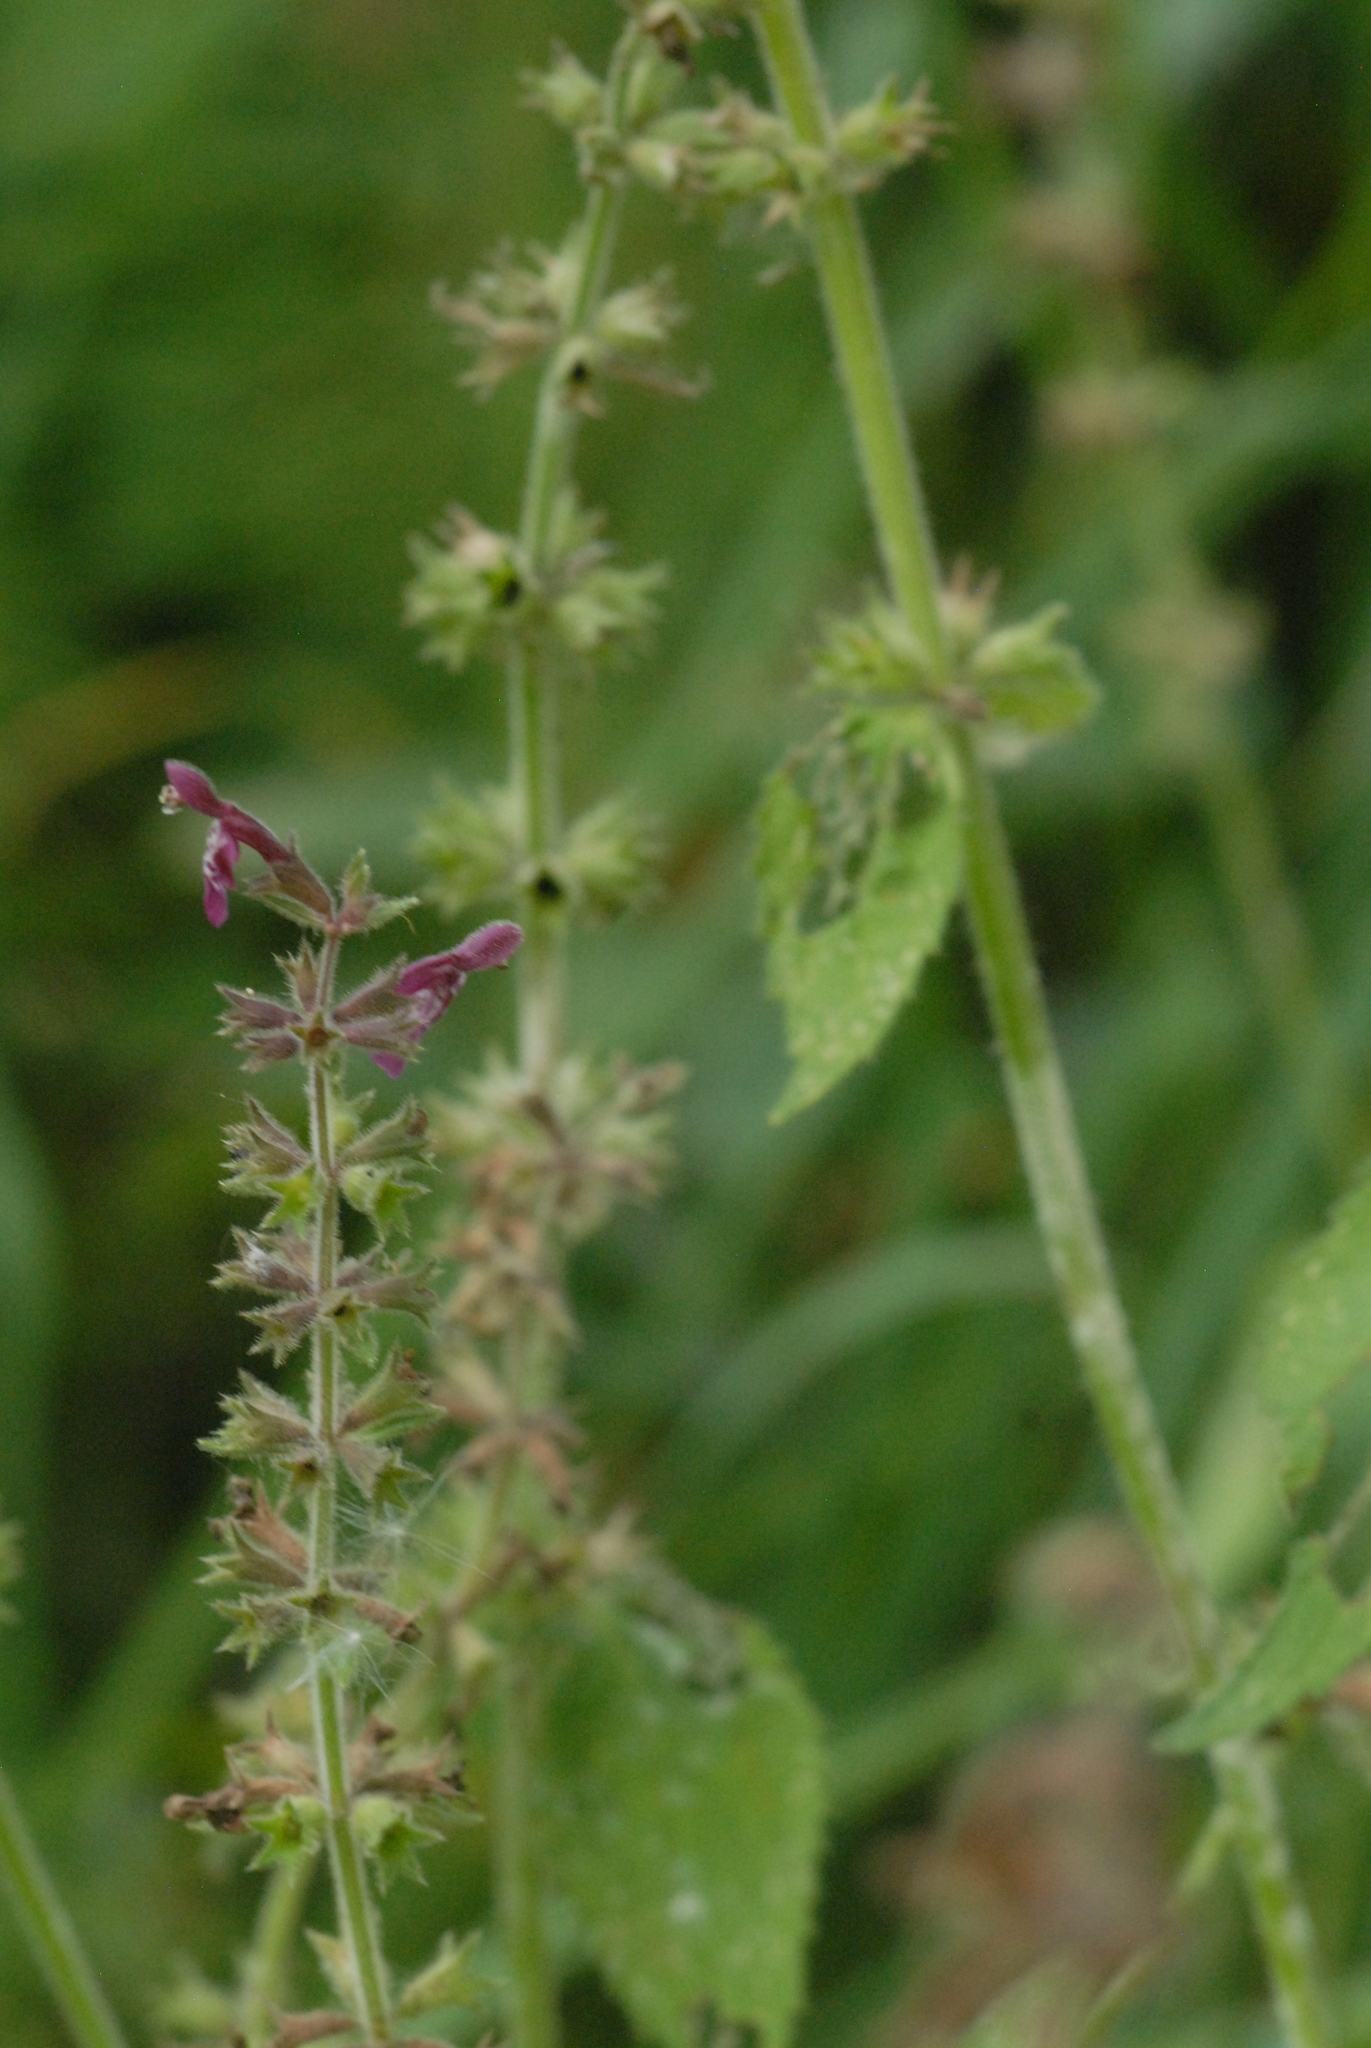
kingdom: Plantae
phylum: Tracheophyta
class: Magnoliopsida
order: Lamiales
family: Lamiaceae
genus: Stachys
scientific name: Stachys sylvatica
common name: Hedge woundwort
